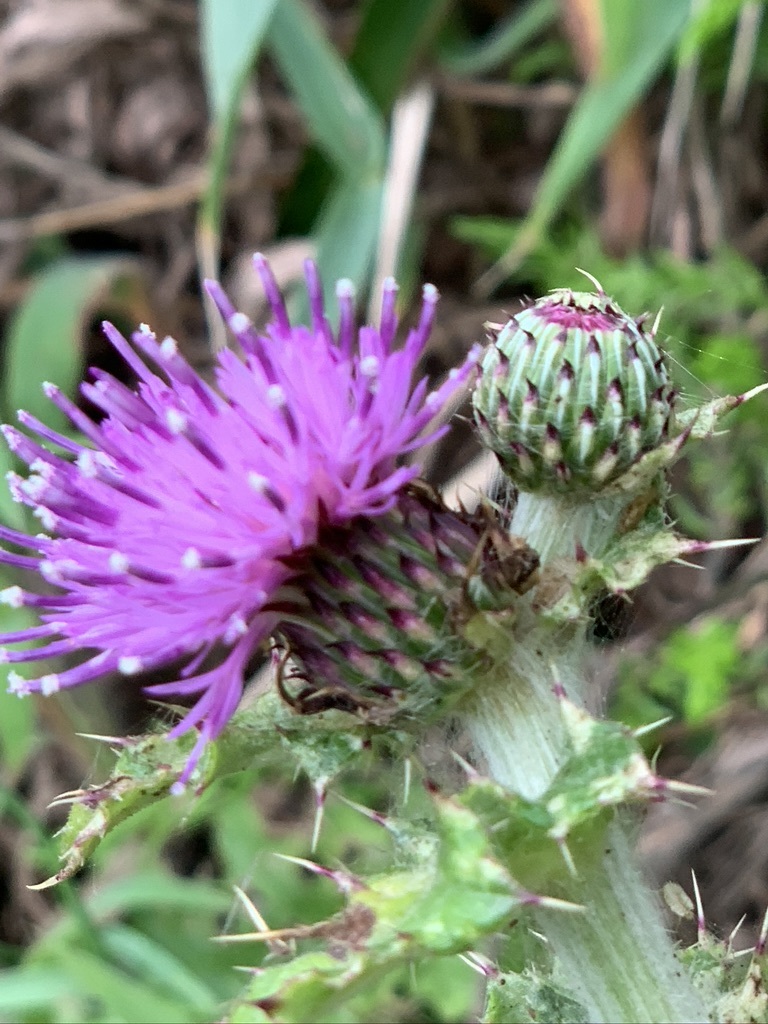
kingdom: Plantae
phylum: Tracheophyta
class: Magnoliopsida
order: Asterales
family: Asteraceae
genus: Cirsium
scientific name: Cirsium japonicum
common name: Japanese thistle
